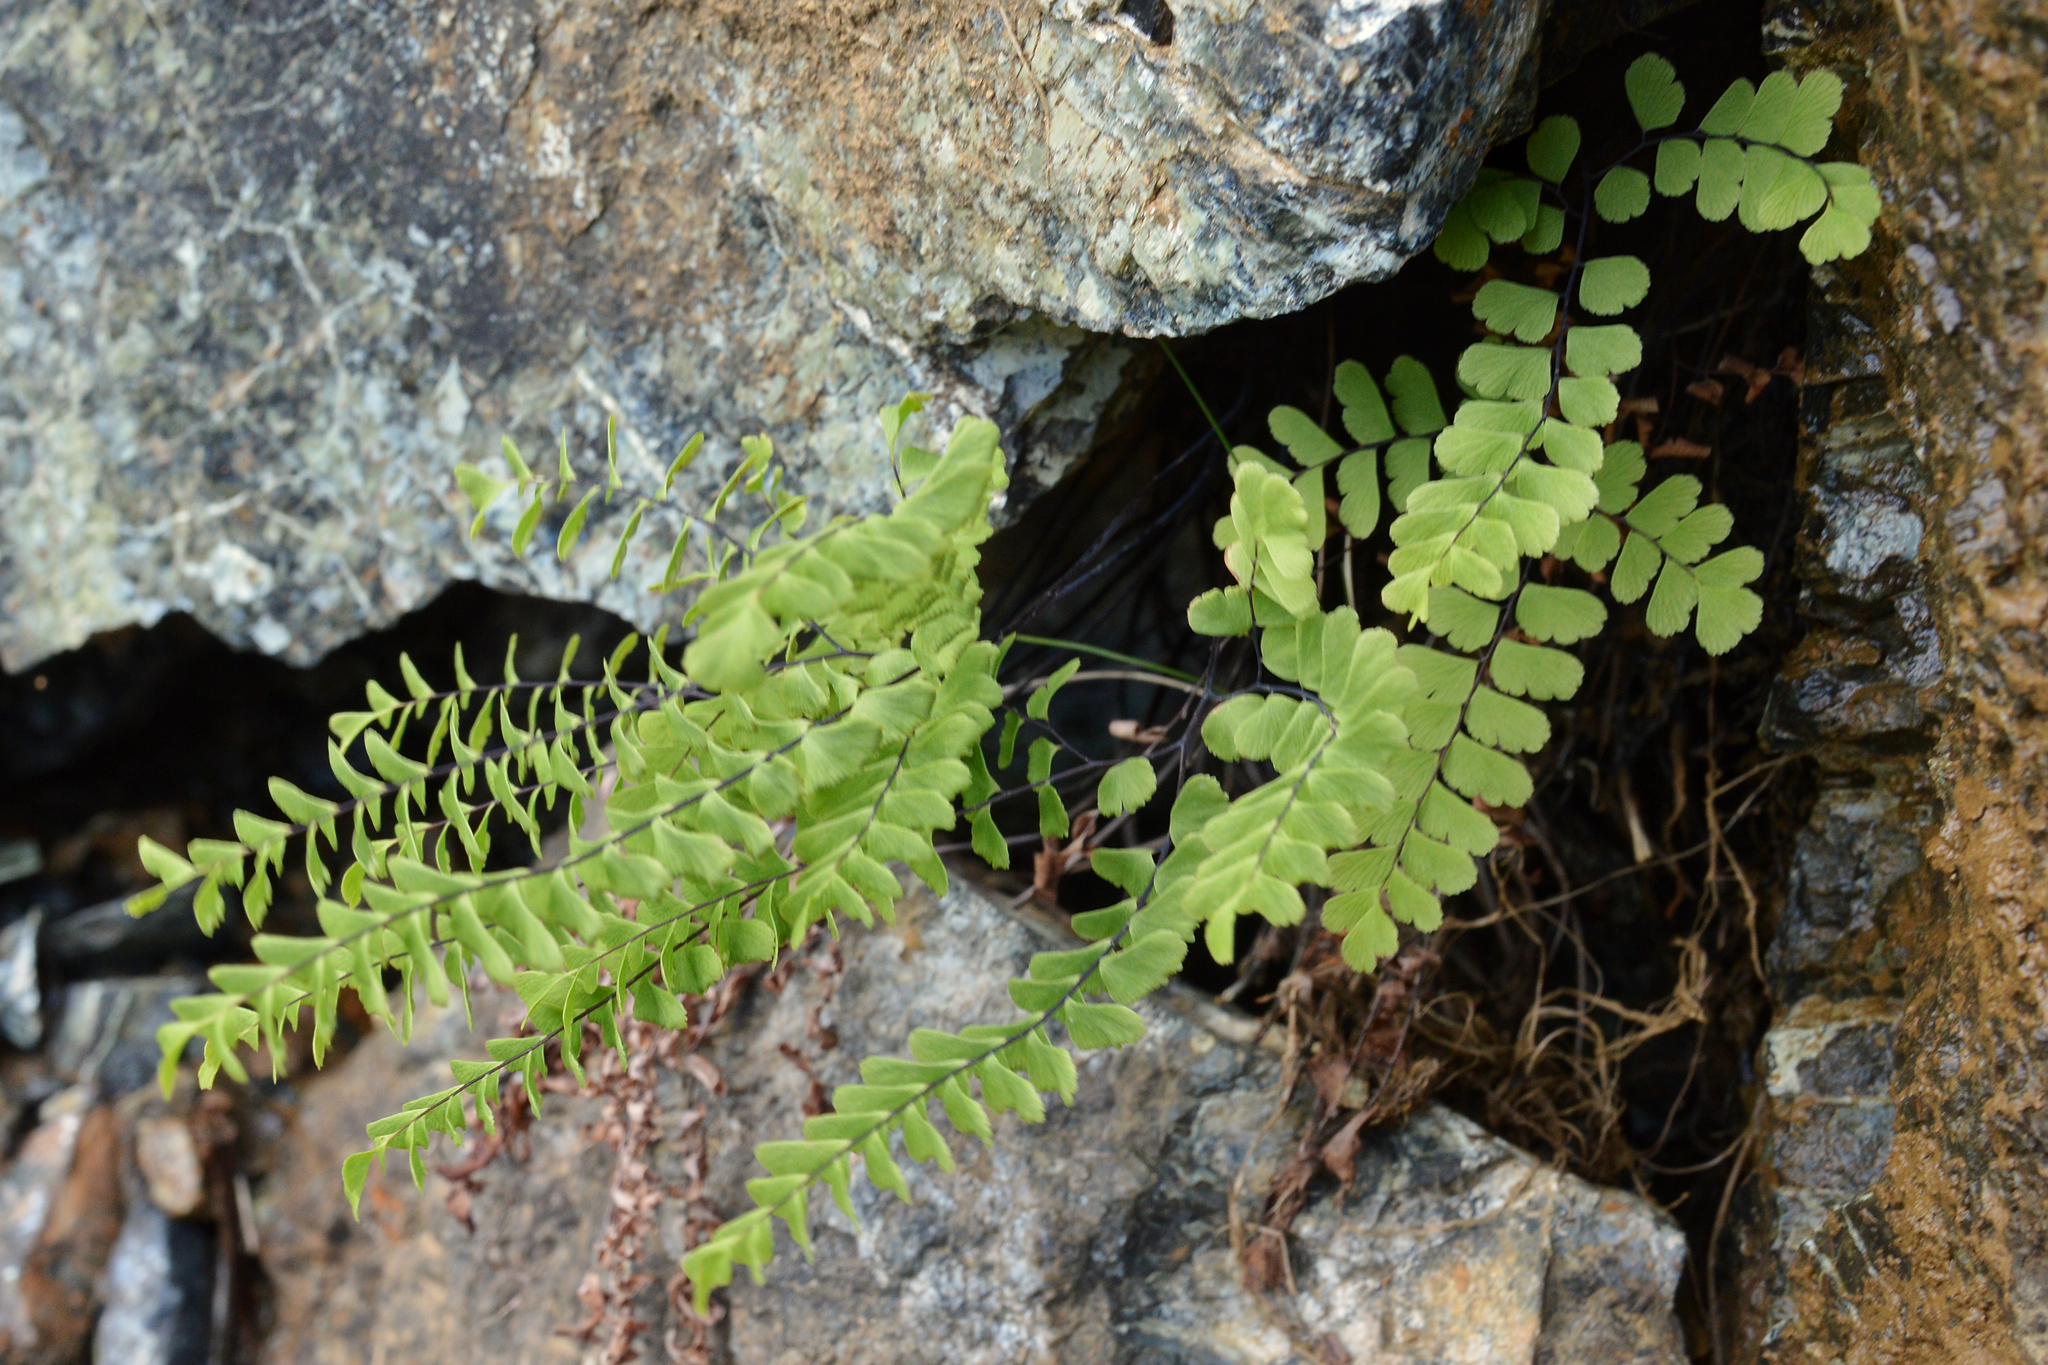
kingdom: Plantae
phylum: Tracheophyta
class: Polypodiopsida
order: Polypodiales
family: Pteridaceae
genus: Adiantum
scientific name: Adiantum aleuticum
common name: Aleutian maidenhair fern
